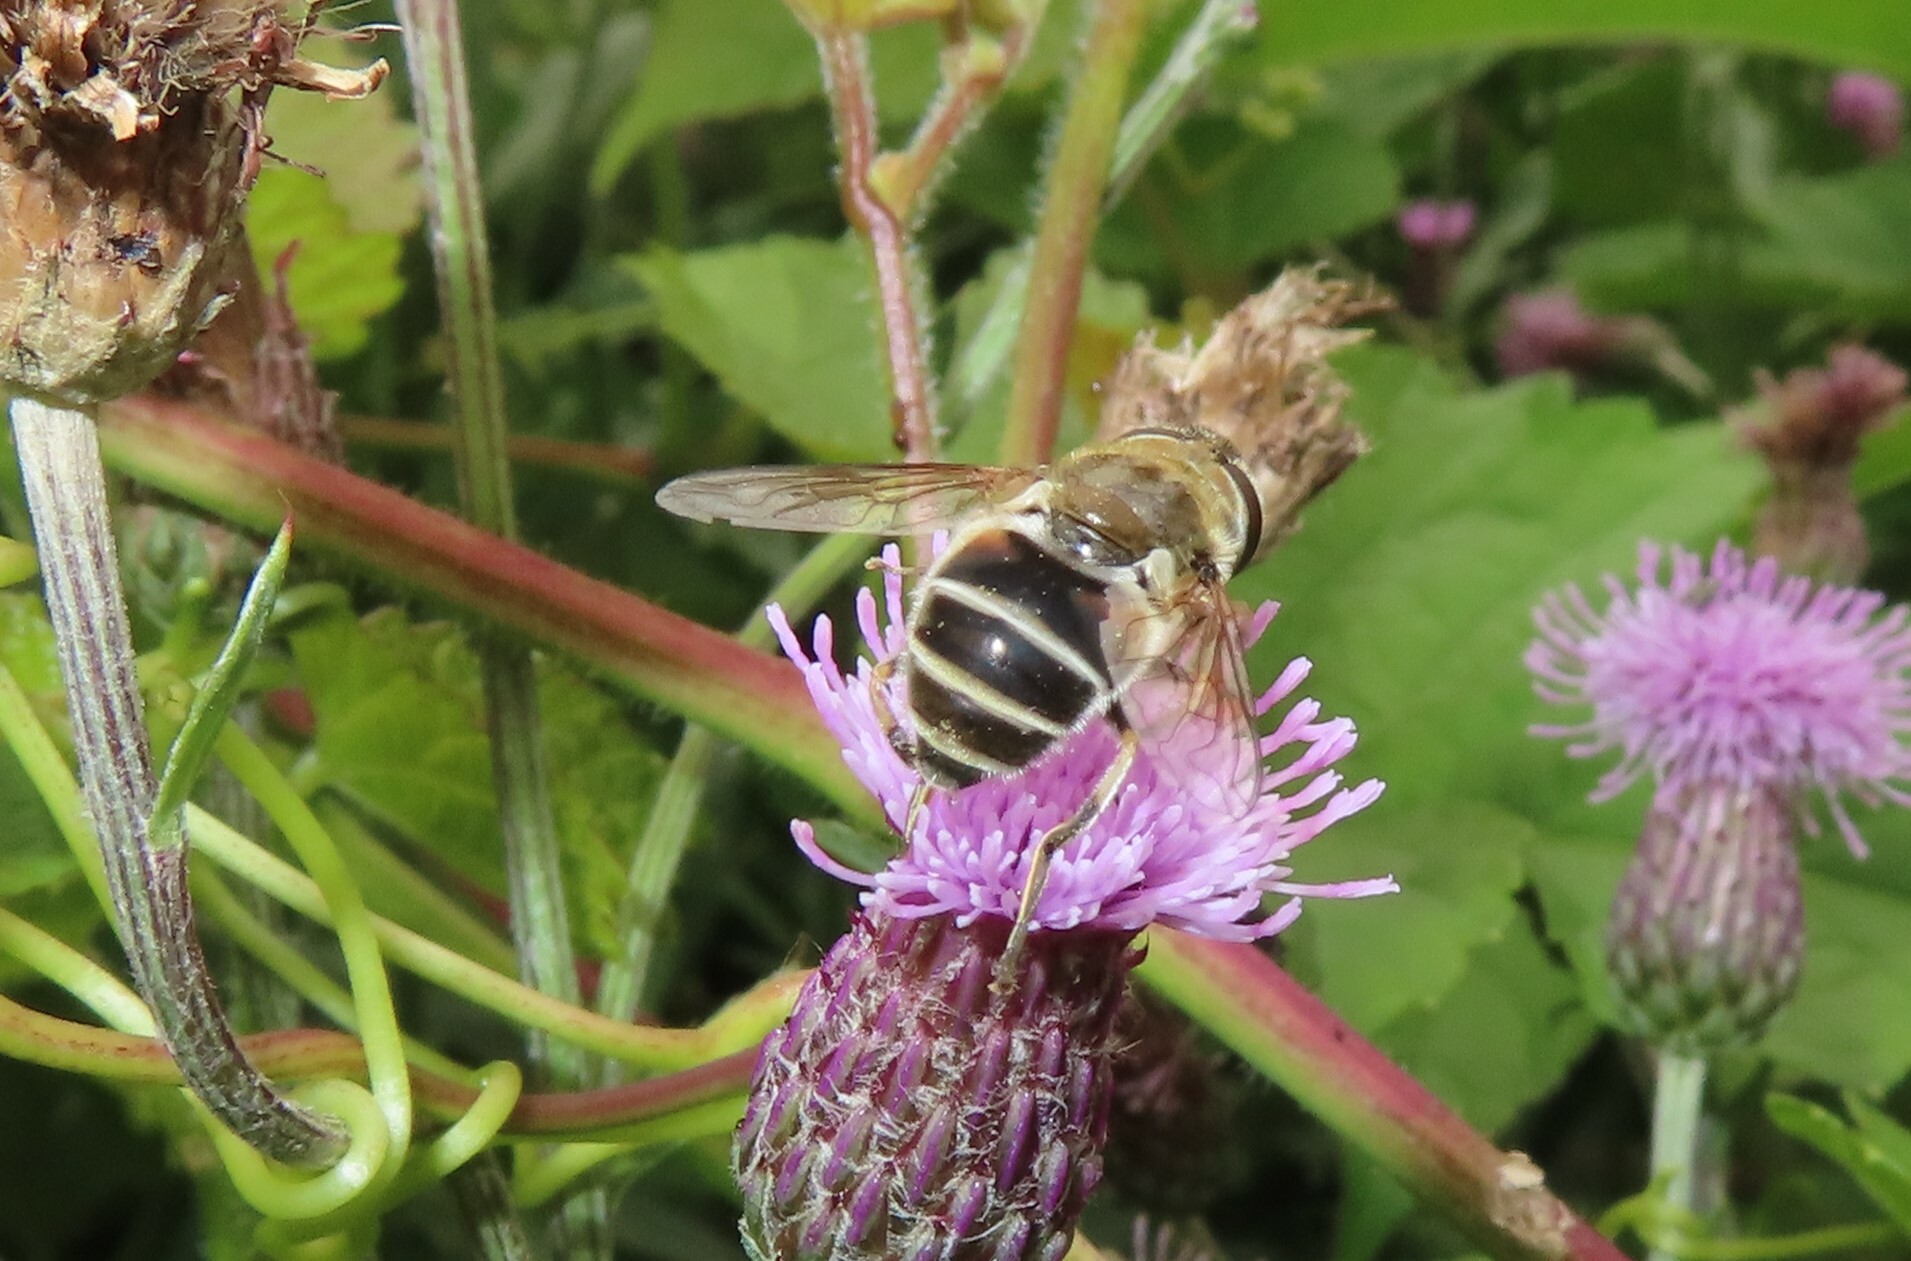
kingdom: Animalia
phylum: Arthropoda
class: Insecta
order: Diptera
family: Syrphidae
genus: Eristalis
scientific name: Eristalis arbustorum
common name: Hover fly
